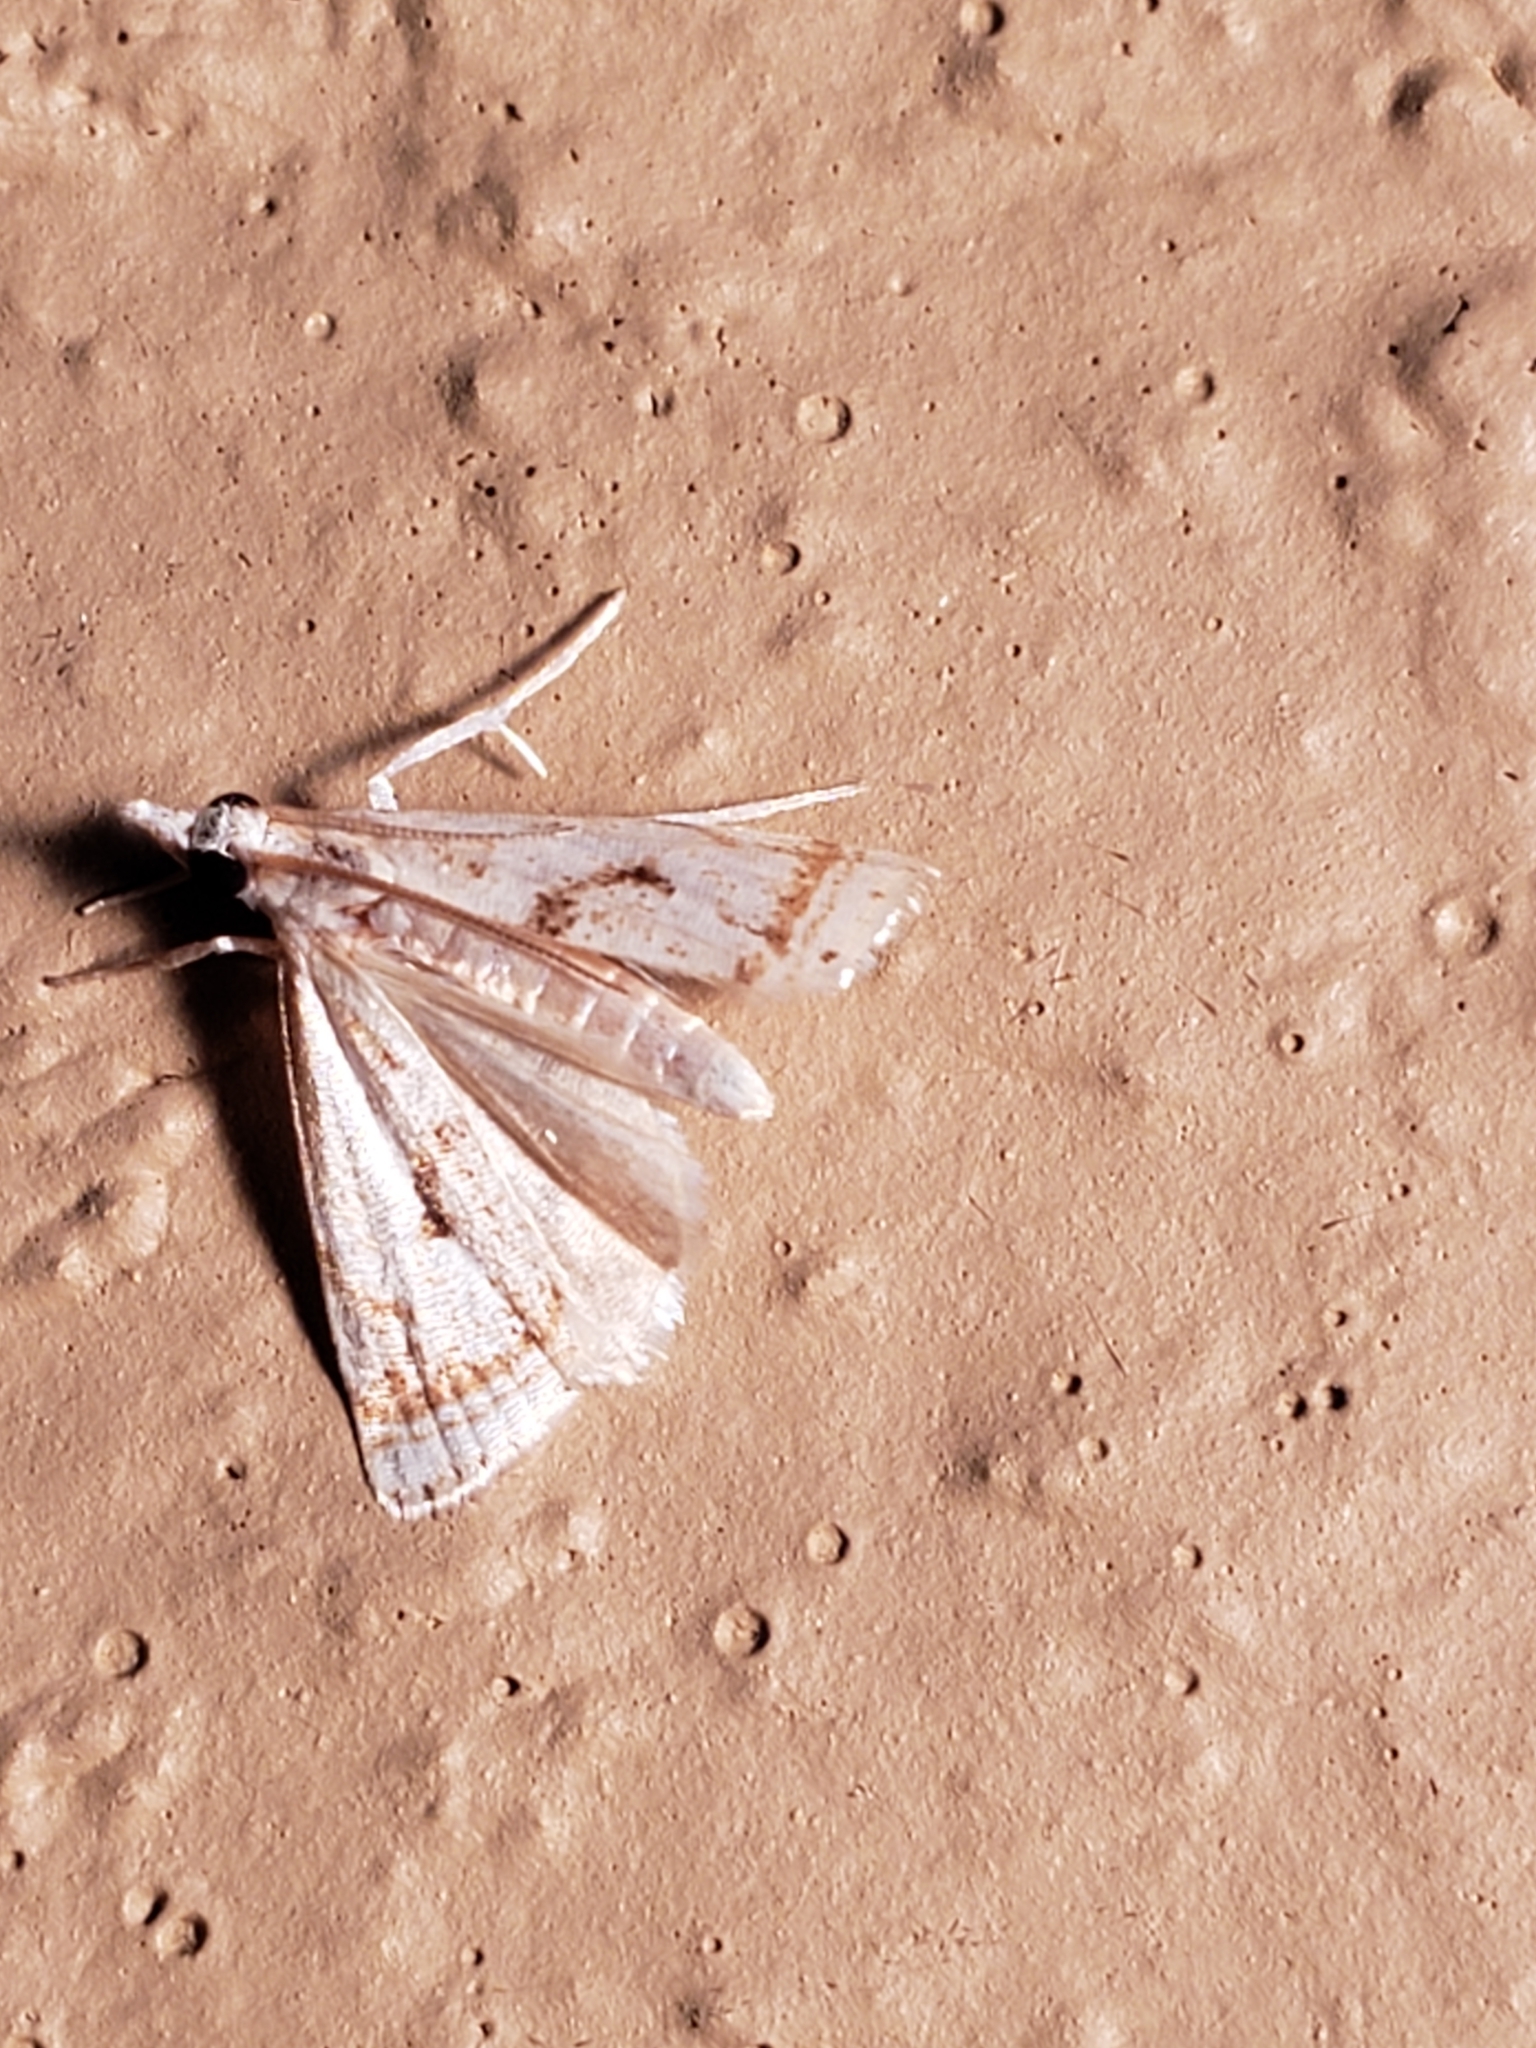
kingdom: Animalia
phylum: Arthropoda
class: Insecta
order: Lepidoptera
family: Crambidae
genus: Microcrambus
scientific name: Microcrambus elegans
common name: Elegant grass-veneer
